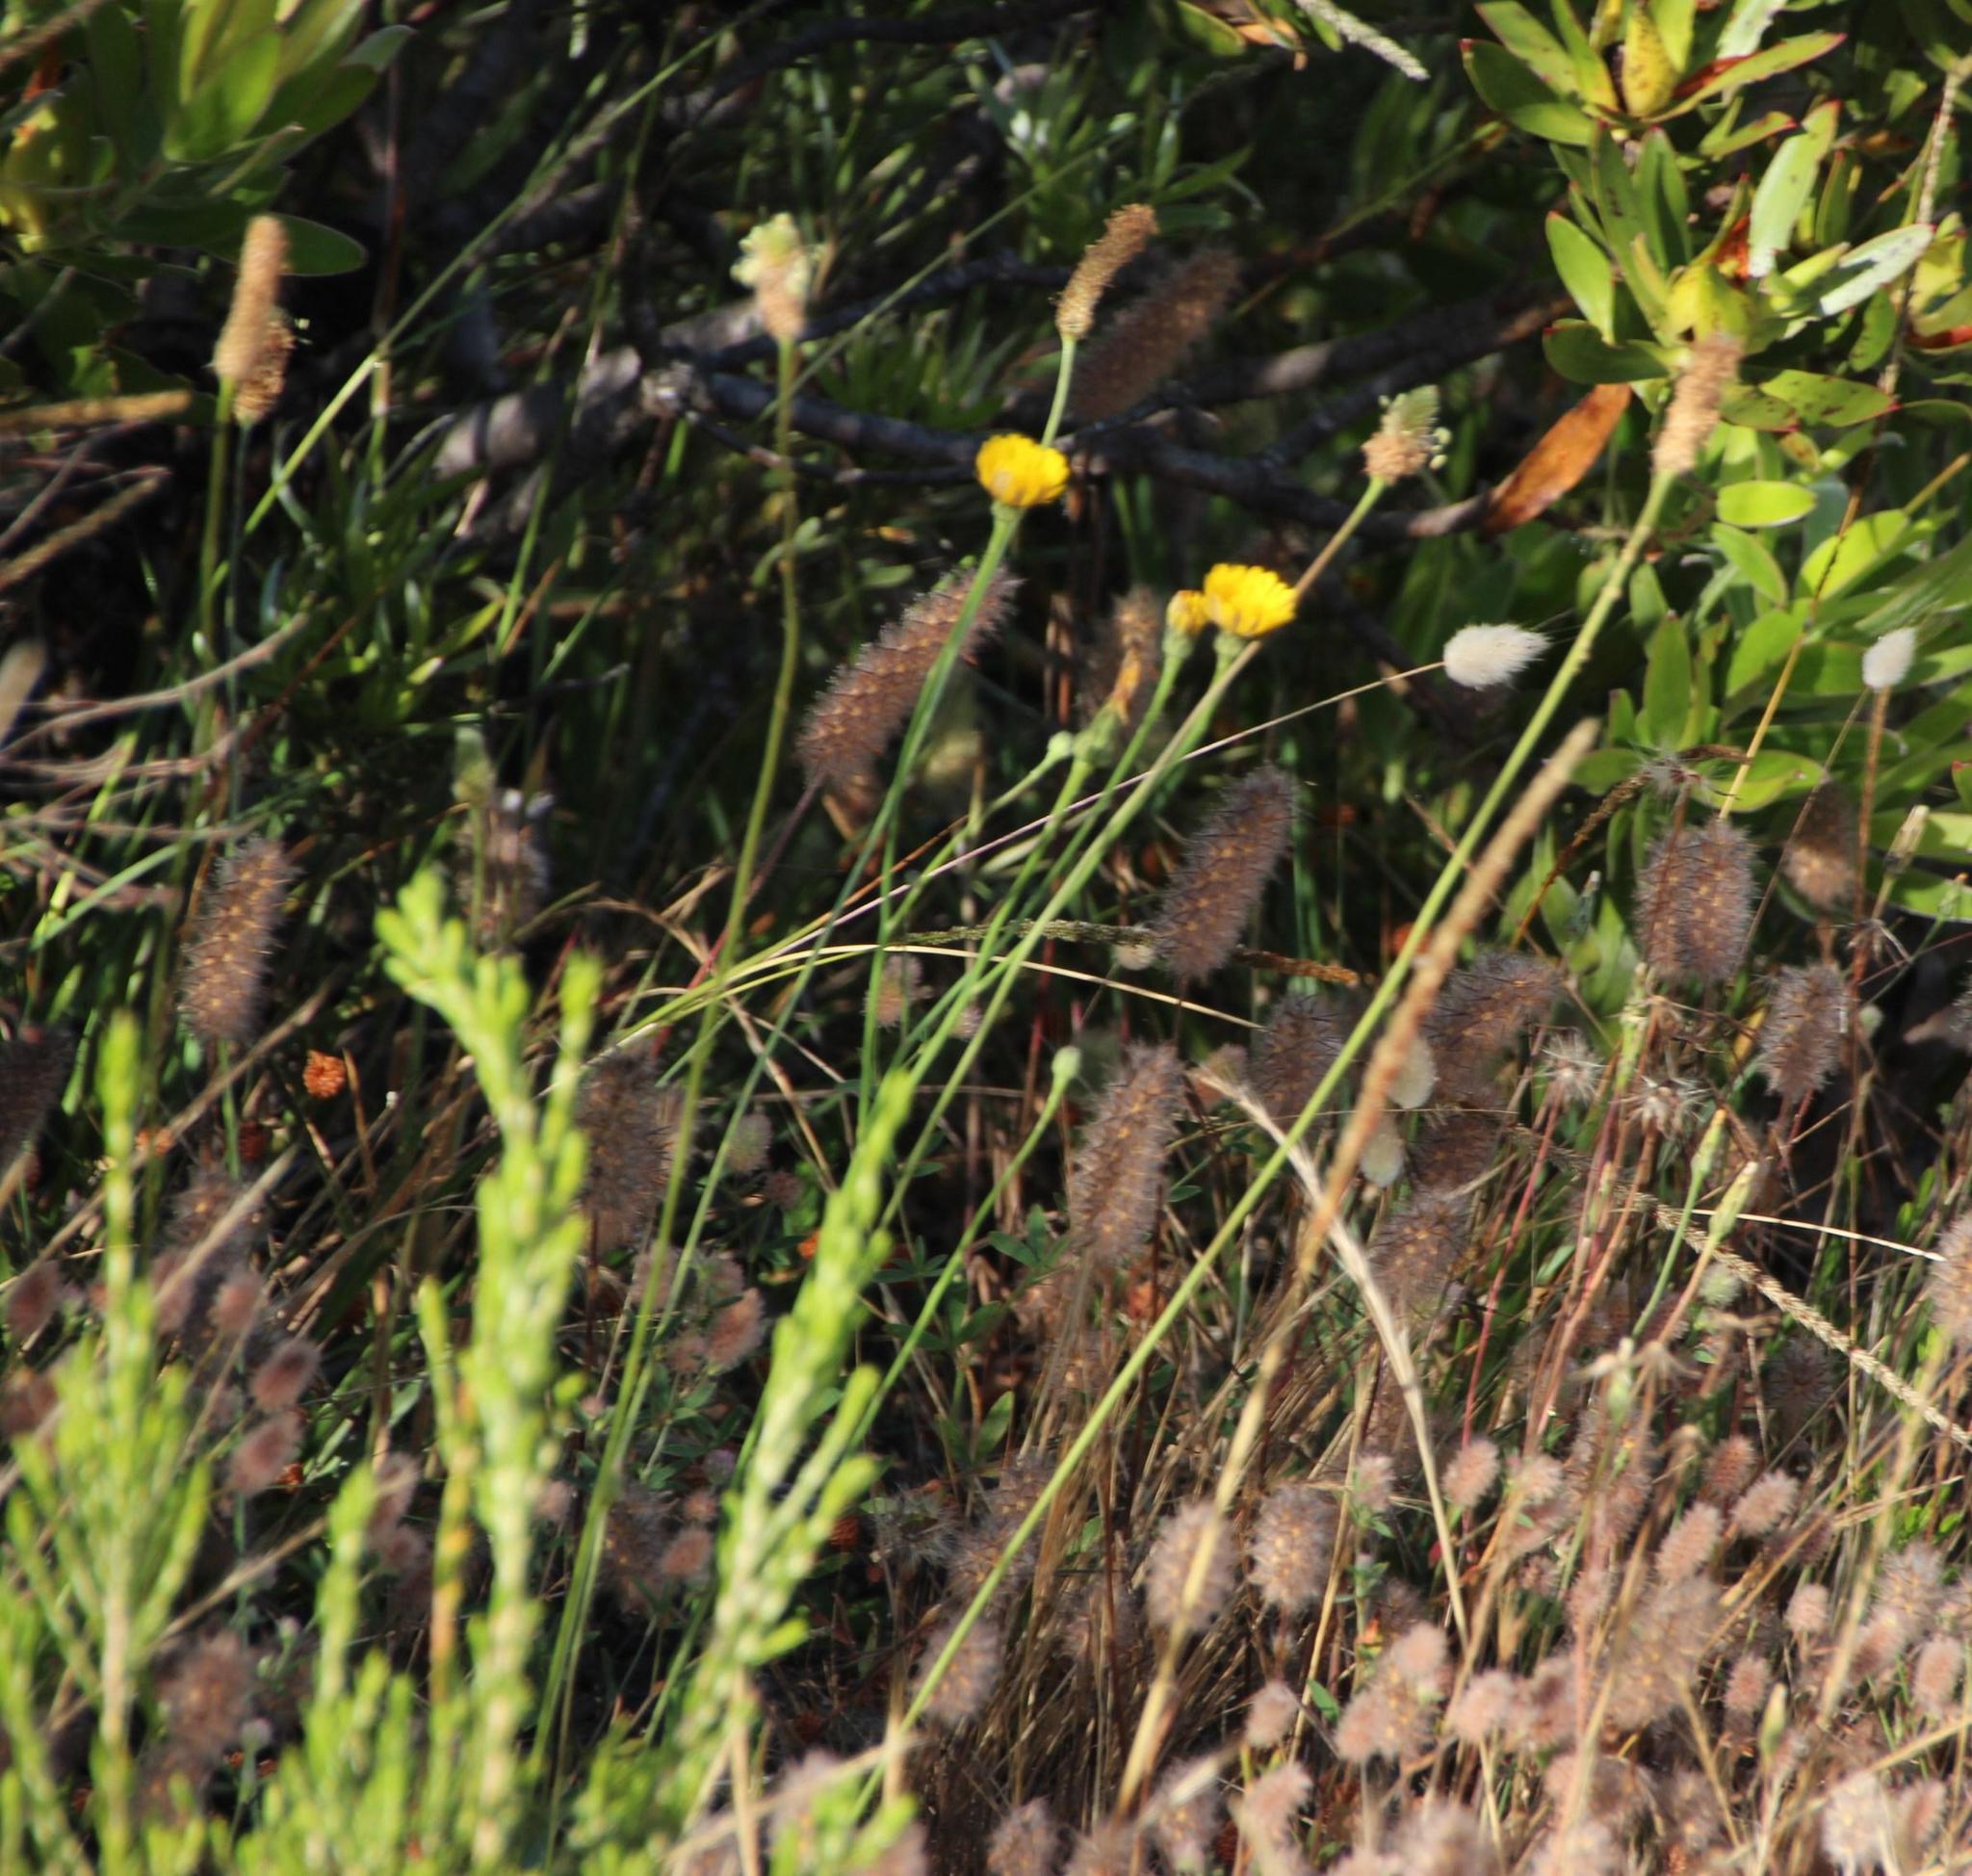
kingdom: Plantae
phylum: Tracheophyta
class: Magnoliopsida
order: Asterales
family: Asteraceae
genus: Hypochaeris
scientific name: Hypochaeris radicata
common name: Flatweed
